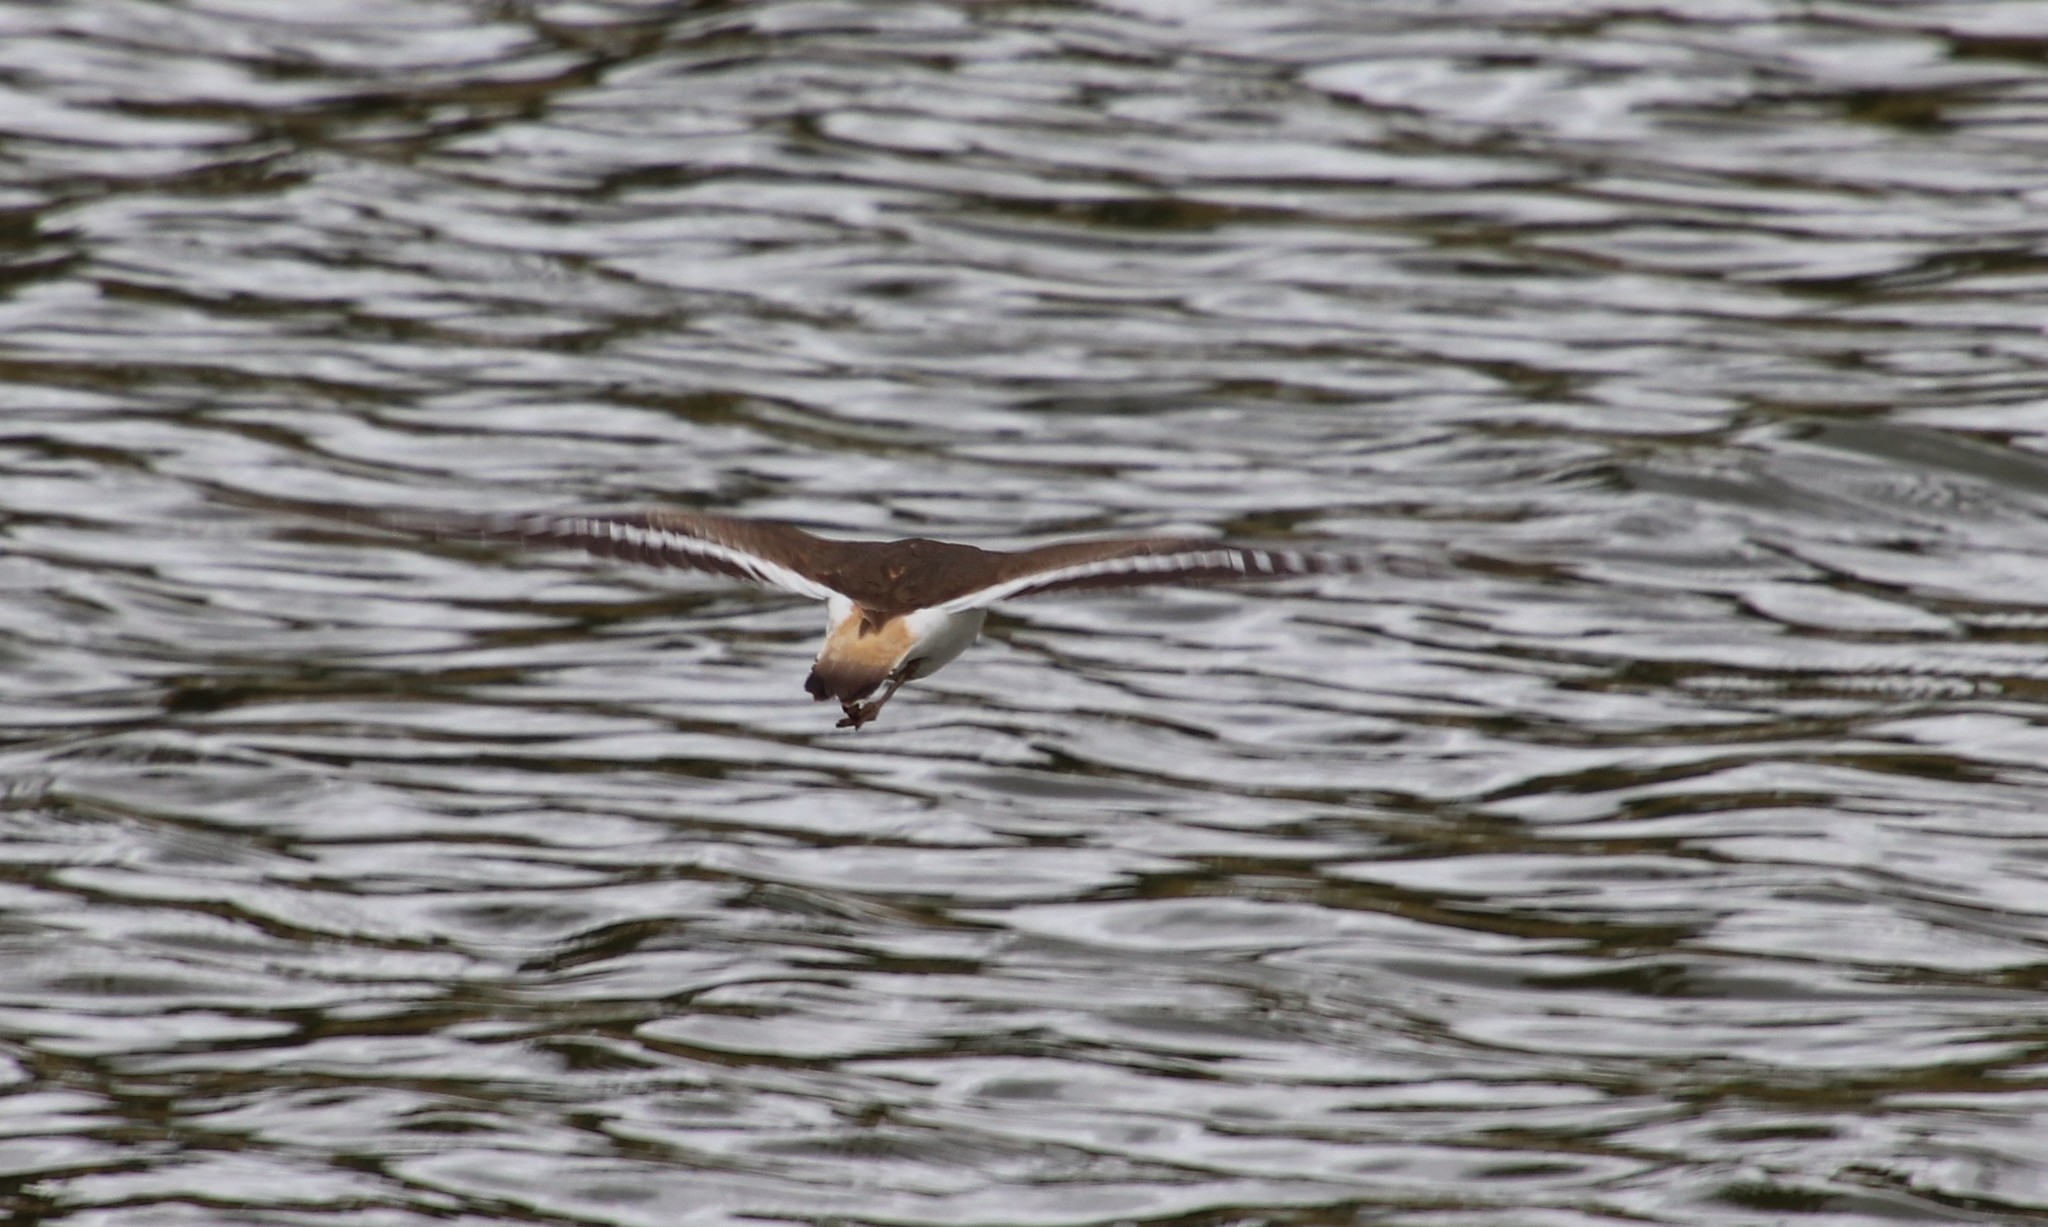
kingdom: Animalia
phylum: Chordata
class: Aves
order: Charadriiformes
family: Charadriidae
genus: Charadrius
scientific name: Charadrius vociferus
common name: Killdeer
